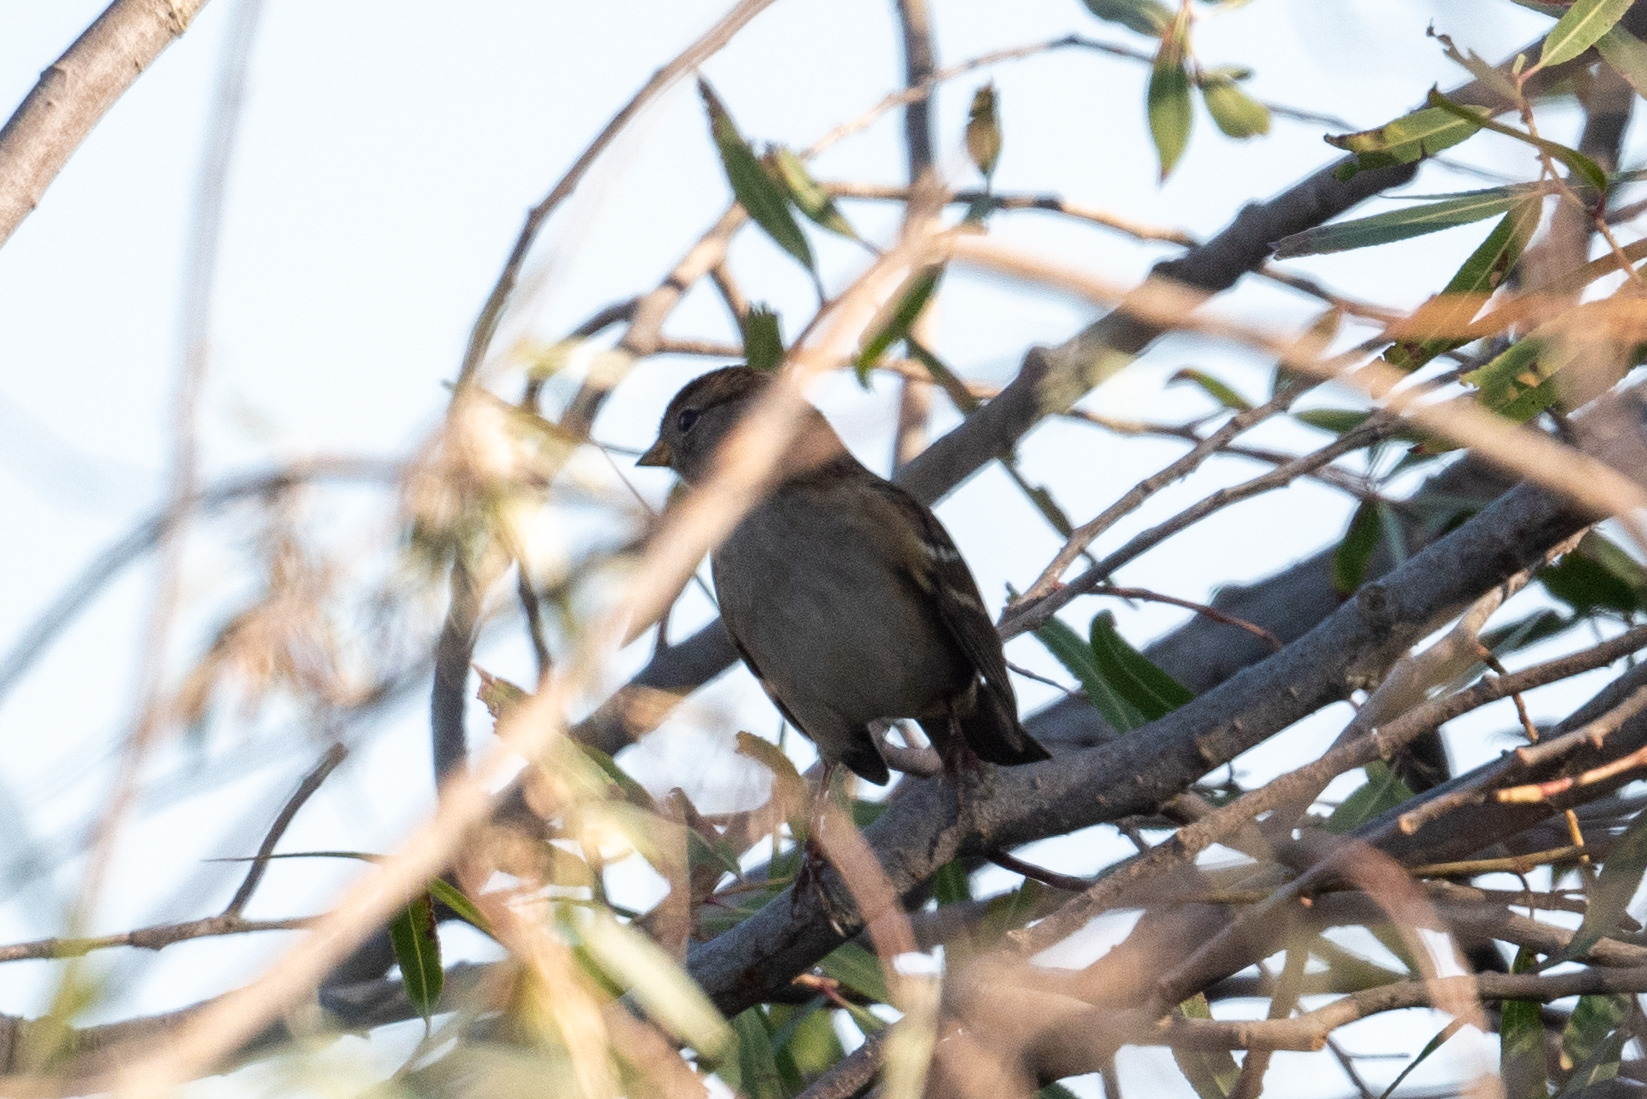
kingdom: Animalia
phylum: Chordata
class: Aves
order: Passeriformes
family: Passerellidae
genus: Zonotrichia
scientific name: Zonotrichia leucophrys
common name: White-crowned sparrow
